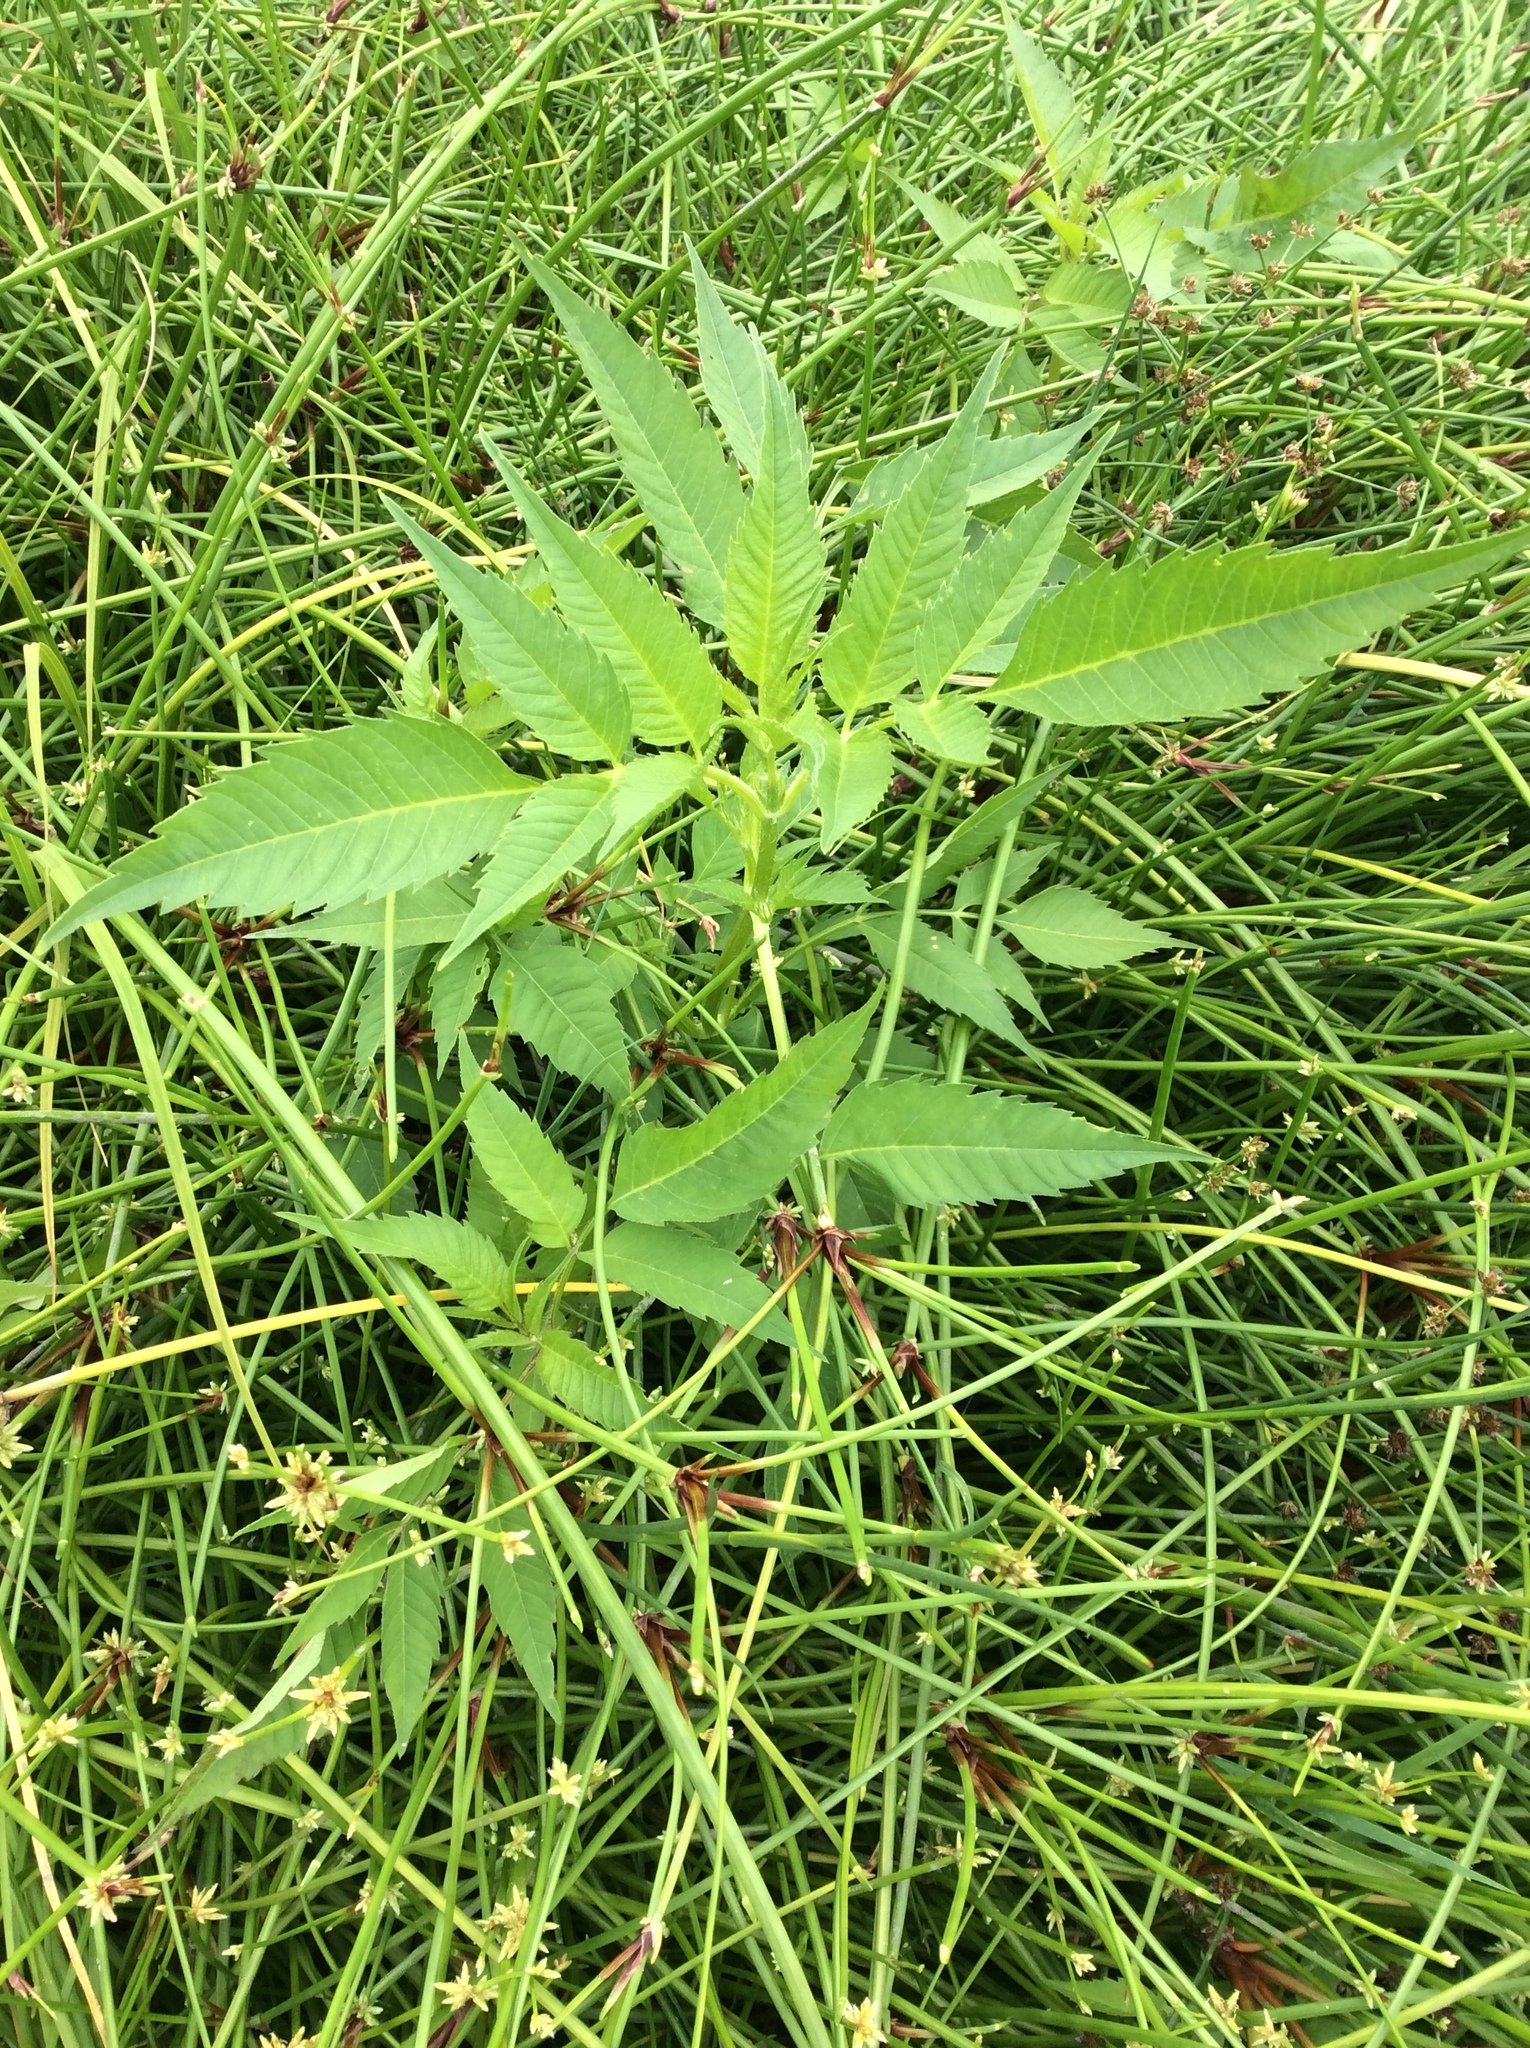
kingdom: Plantae
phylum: Tracheophyta
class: Magnoliopsida
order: Asterales
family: Asteraceae
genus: Bidens
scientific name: Bidens frondosa
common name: Beggarticks
